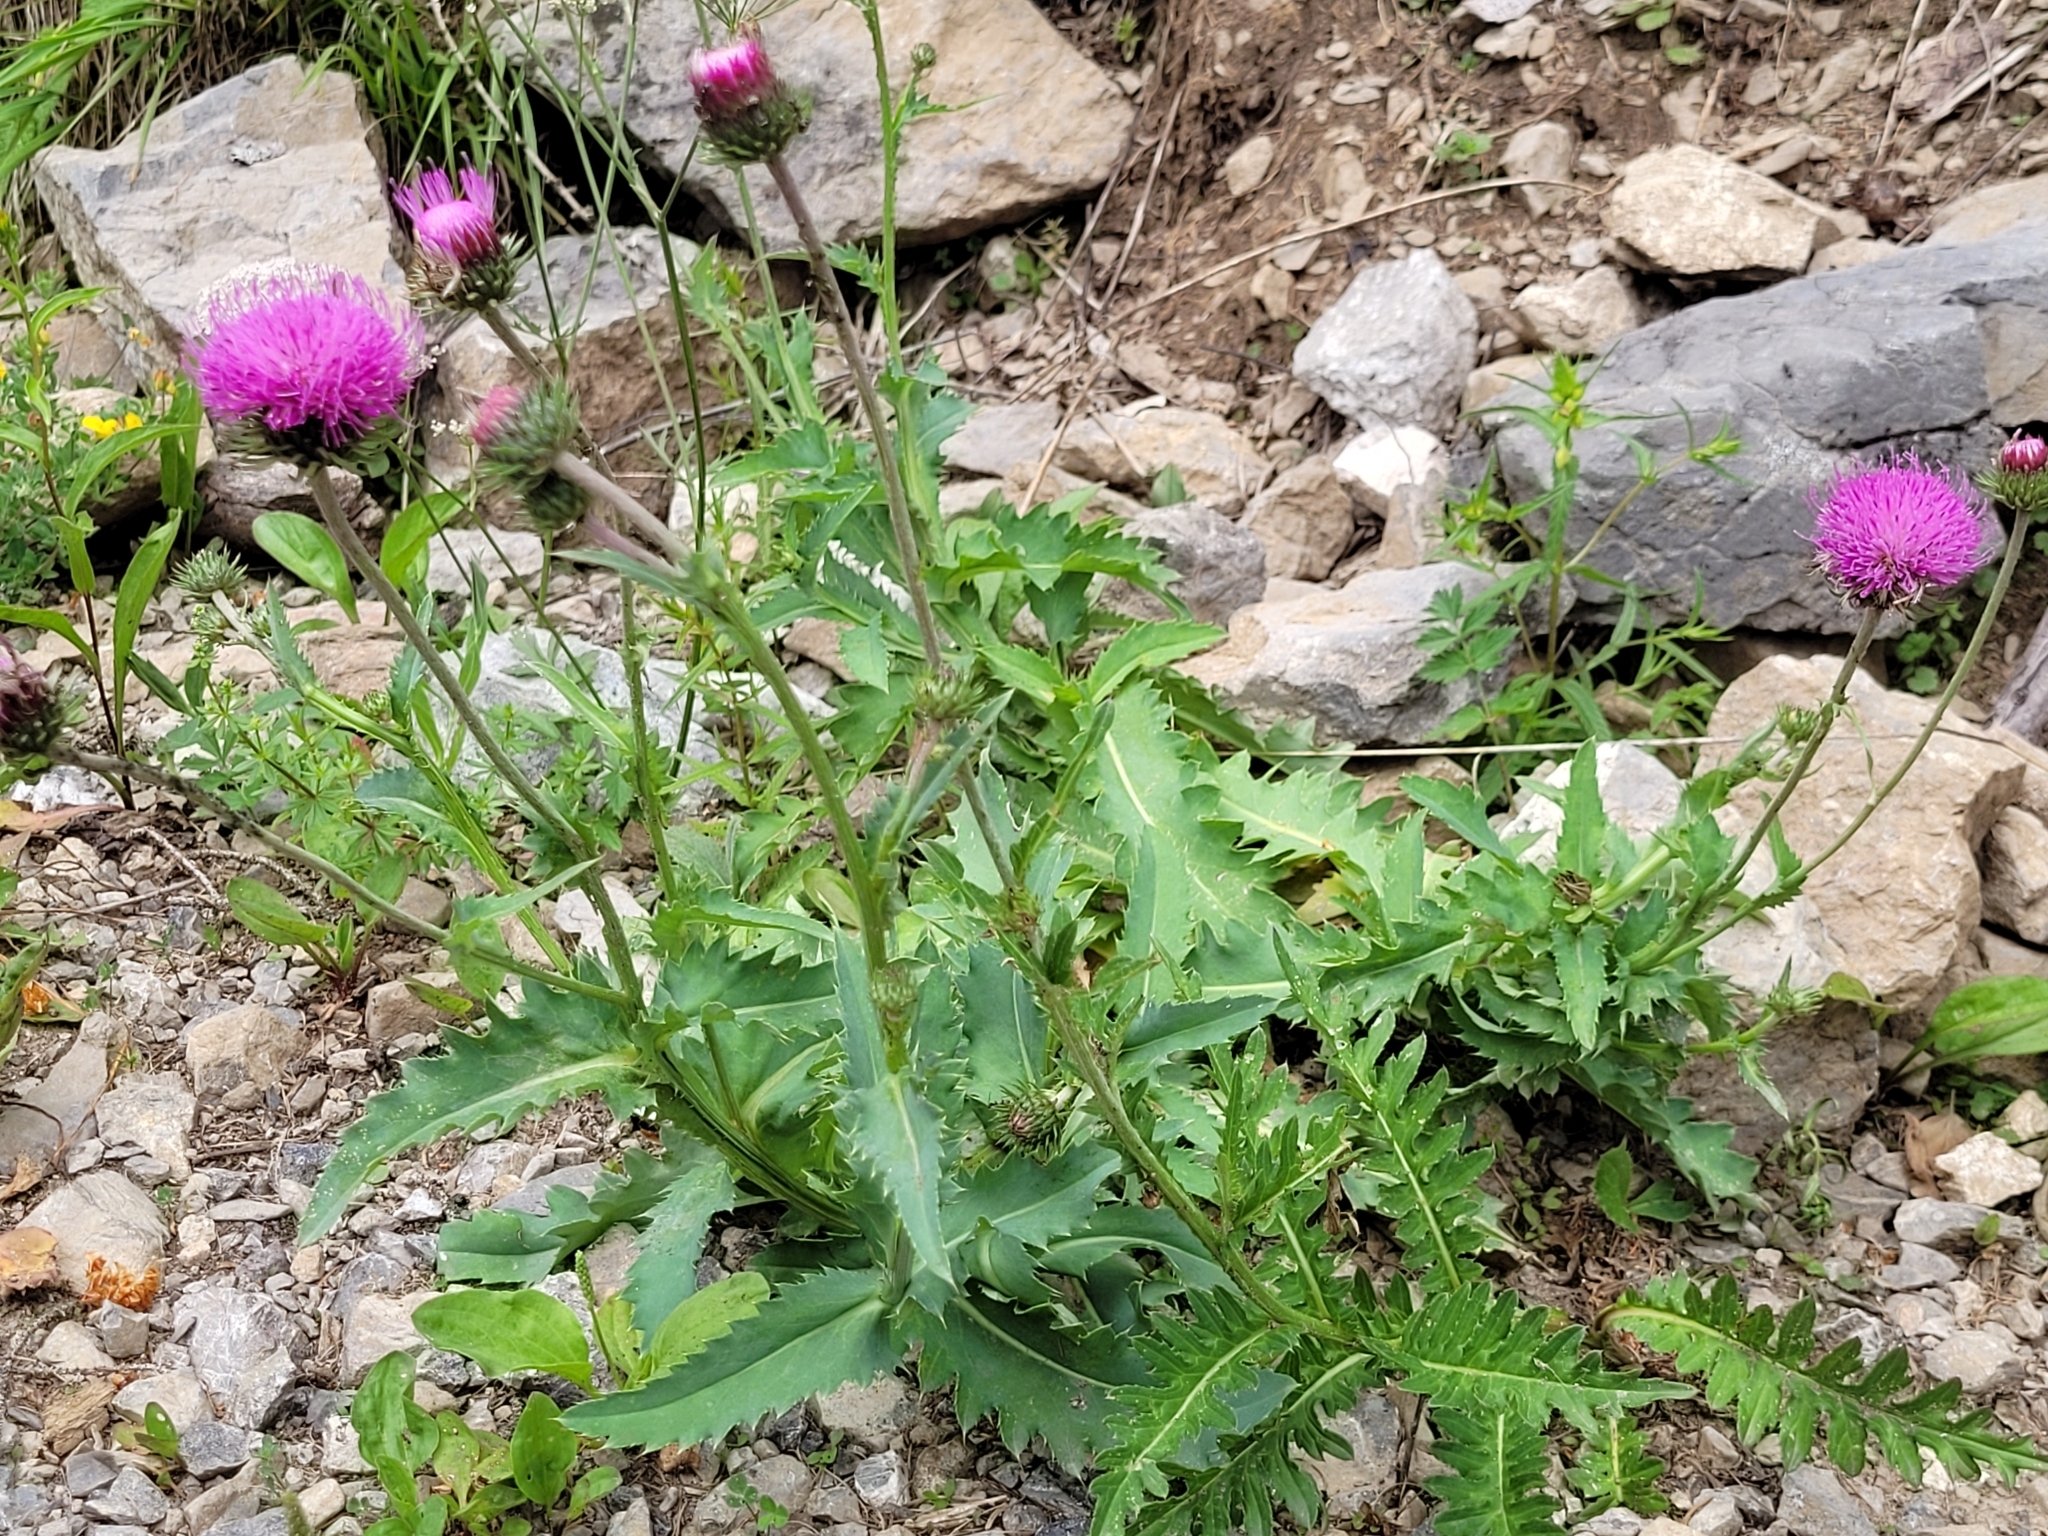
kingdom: Plantae
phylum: Tracheophyta
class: Magnoliopsida
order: Asterales
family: Asteraceae
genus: Carduus
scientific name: Carduus defloratus
